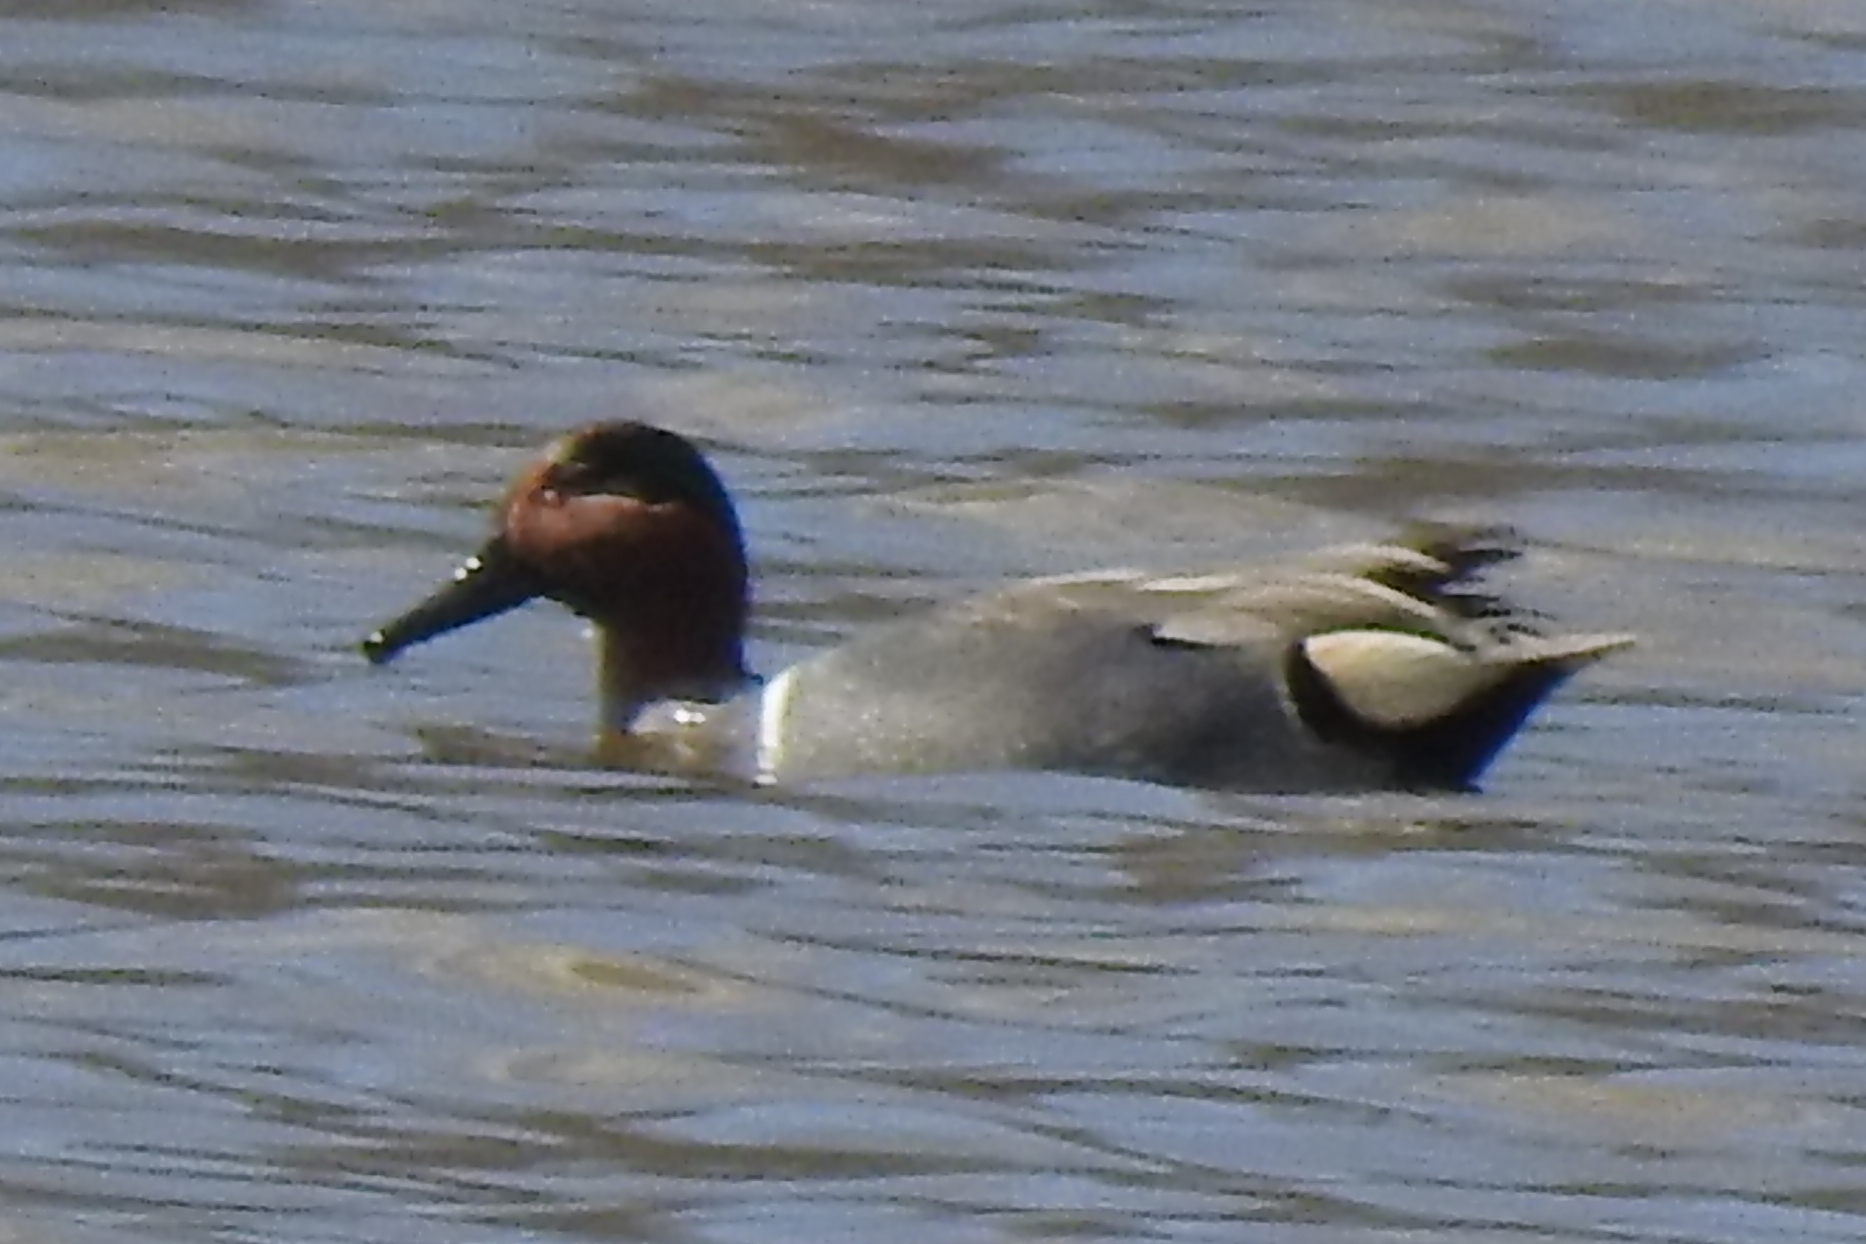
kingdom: Animalia
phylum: Chordata
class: Aves
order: Anseriformes
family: Anatidae
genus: Anas
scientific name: Anas crecca
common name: Eurasian teal
